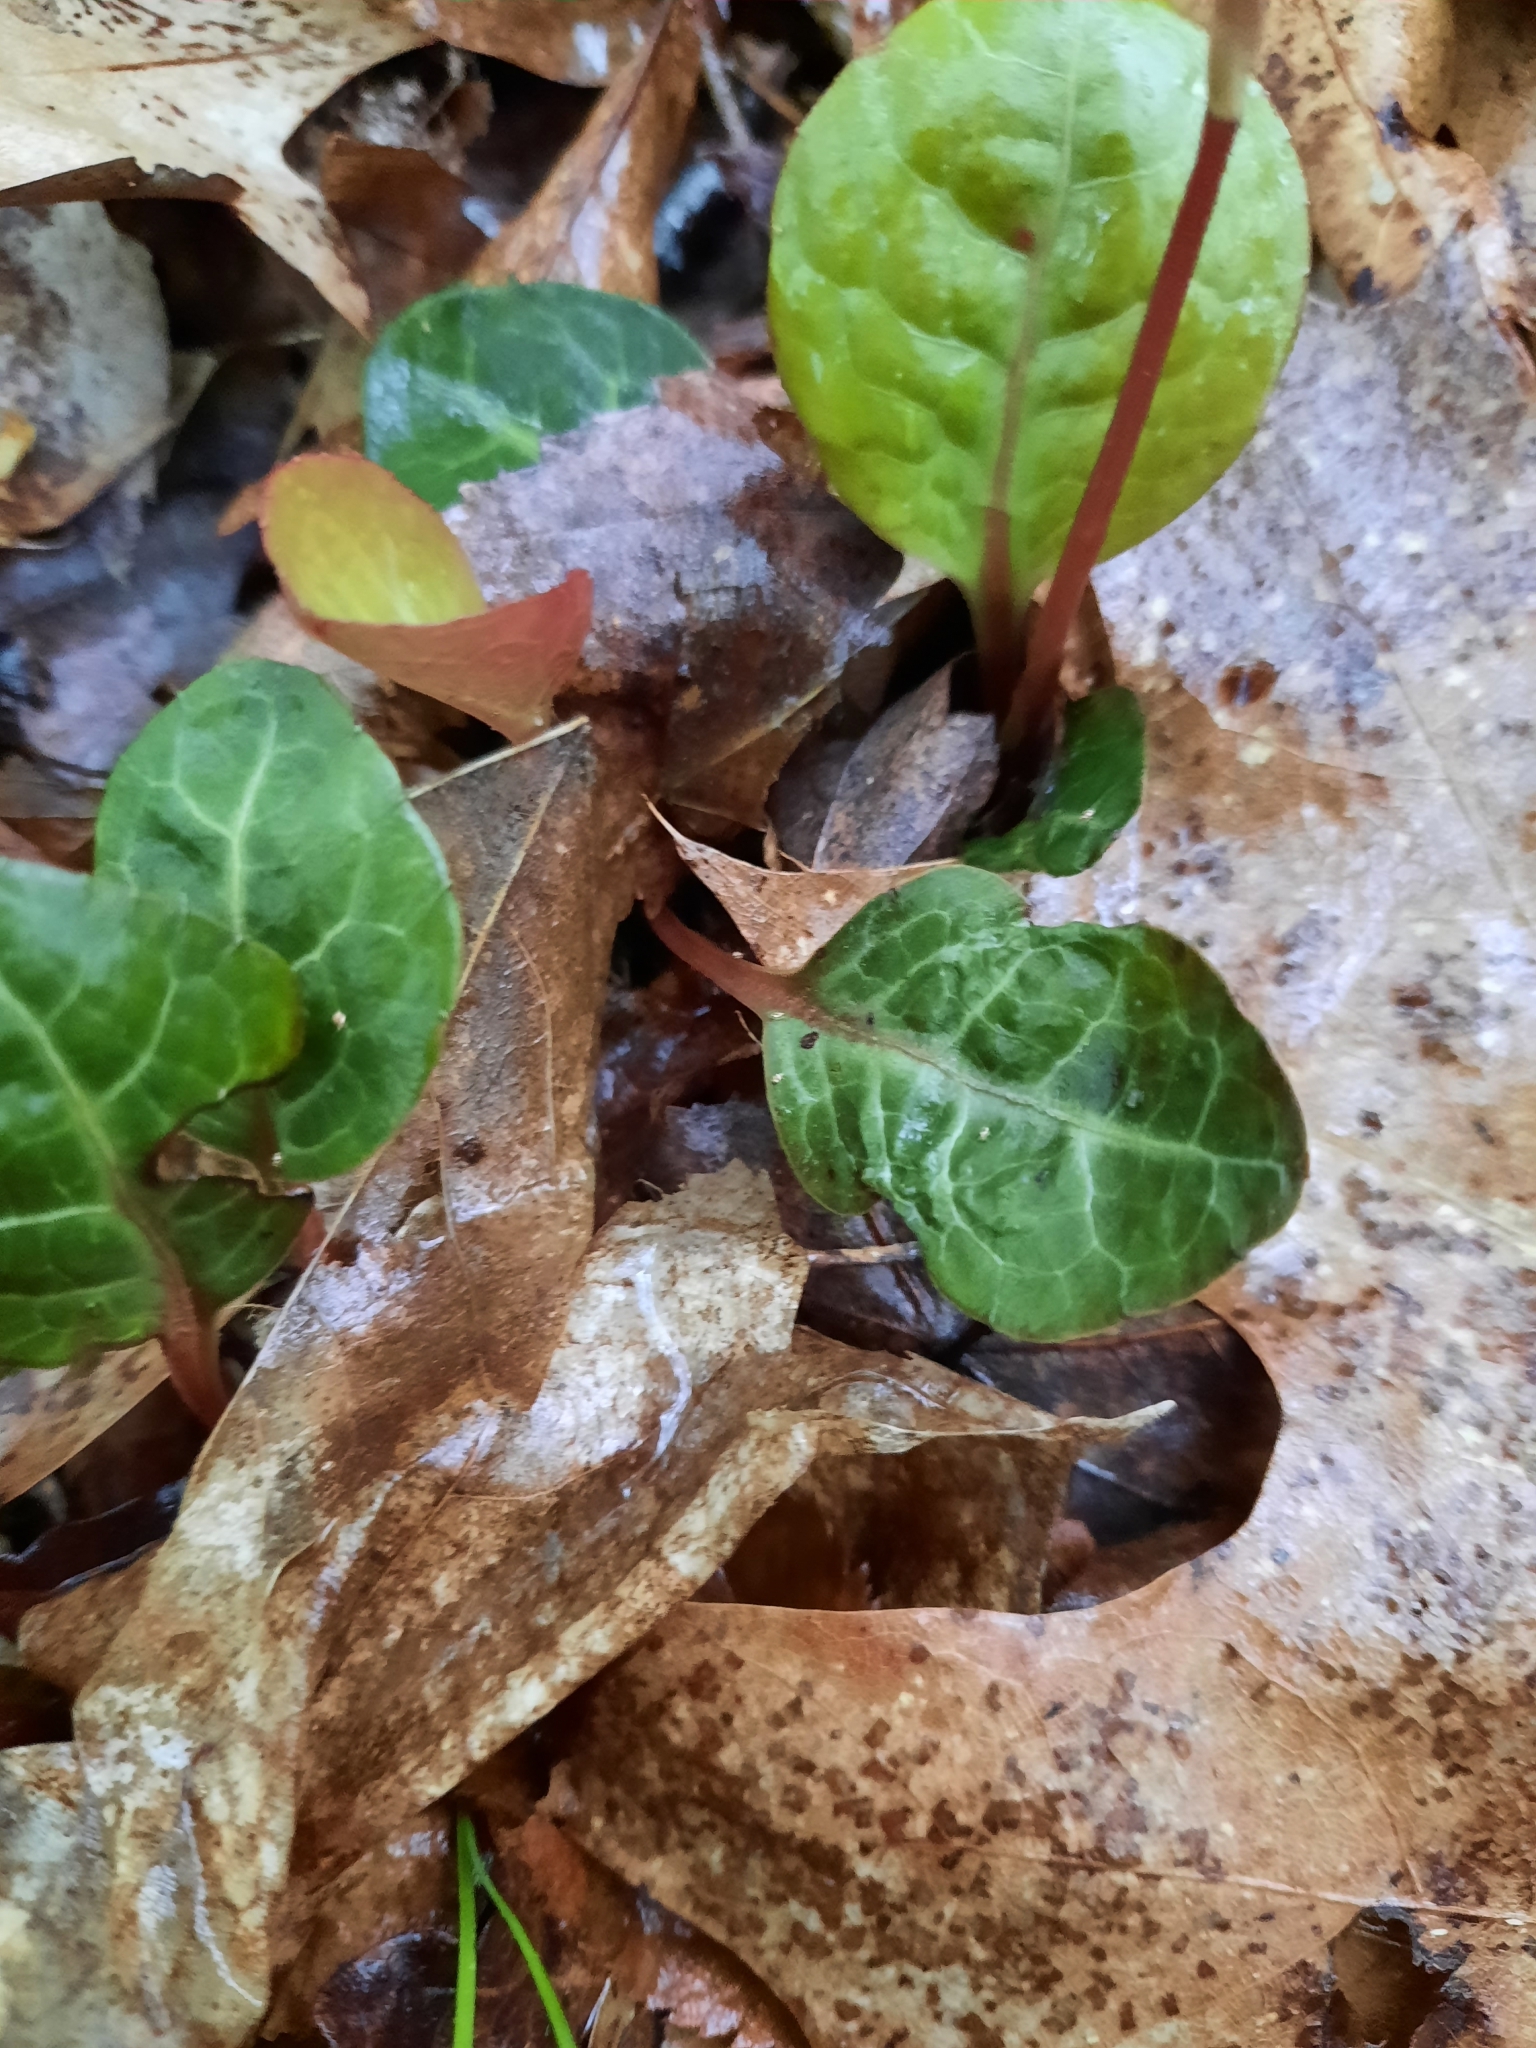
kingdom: Plantae
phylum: Tracheophyta
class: Magnoliopsida
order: Ericales
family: Ericaceae
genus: Pyrola
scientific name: Pyrola americana
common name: American wintergreen
